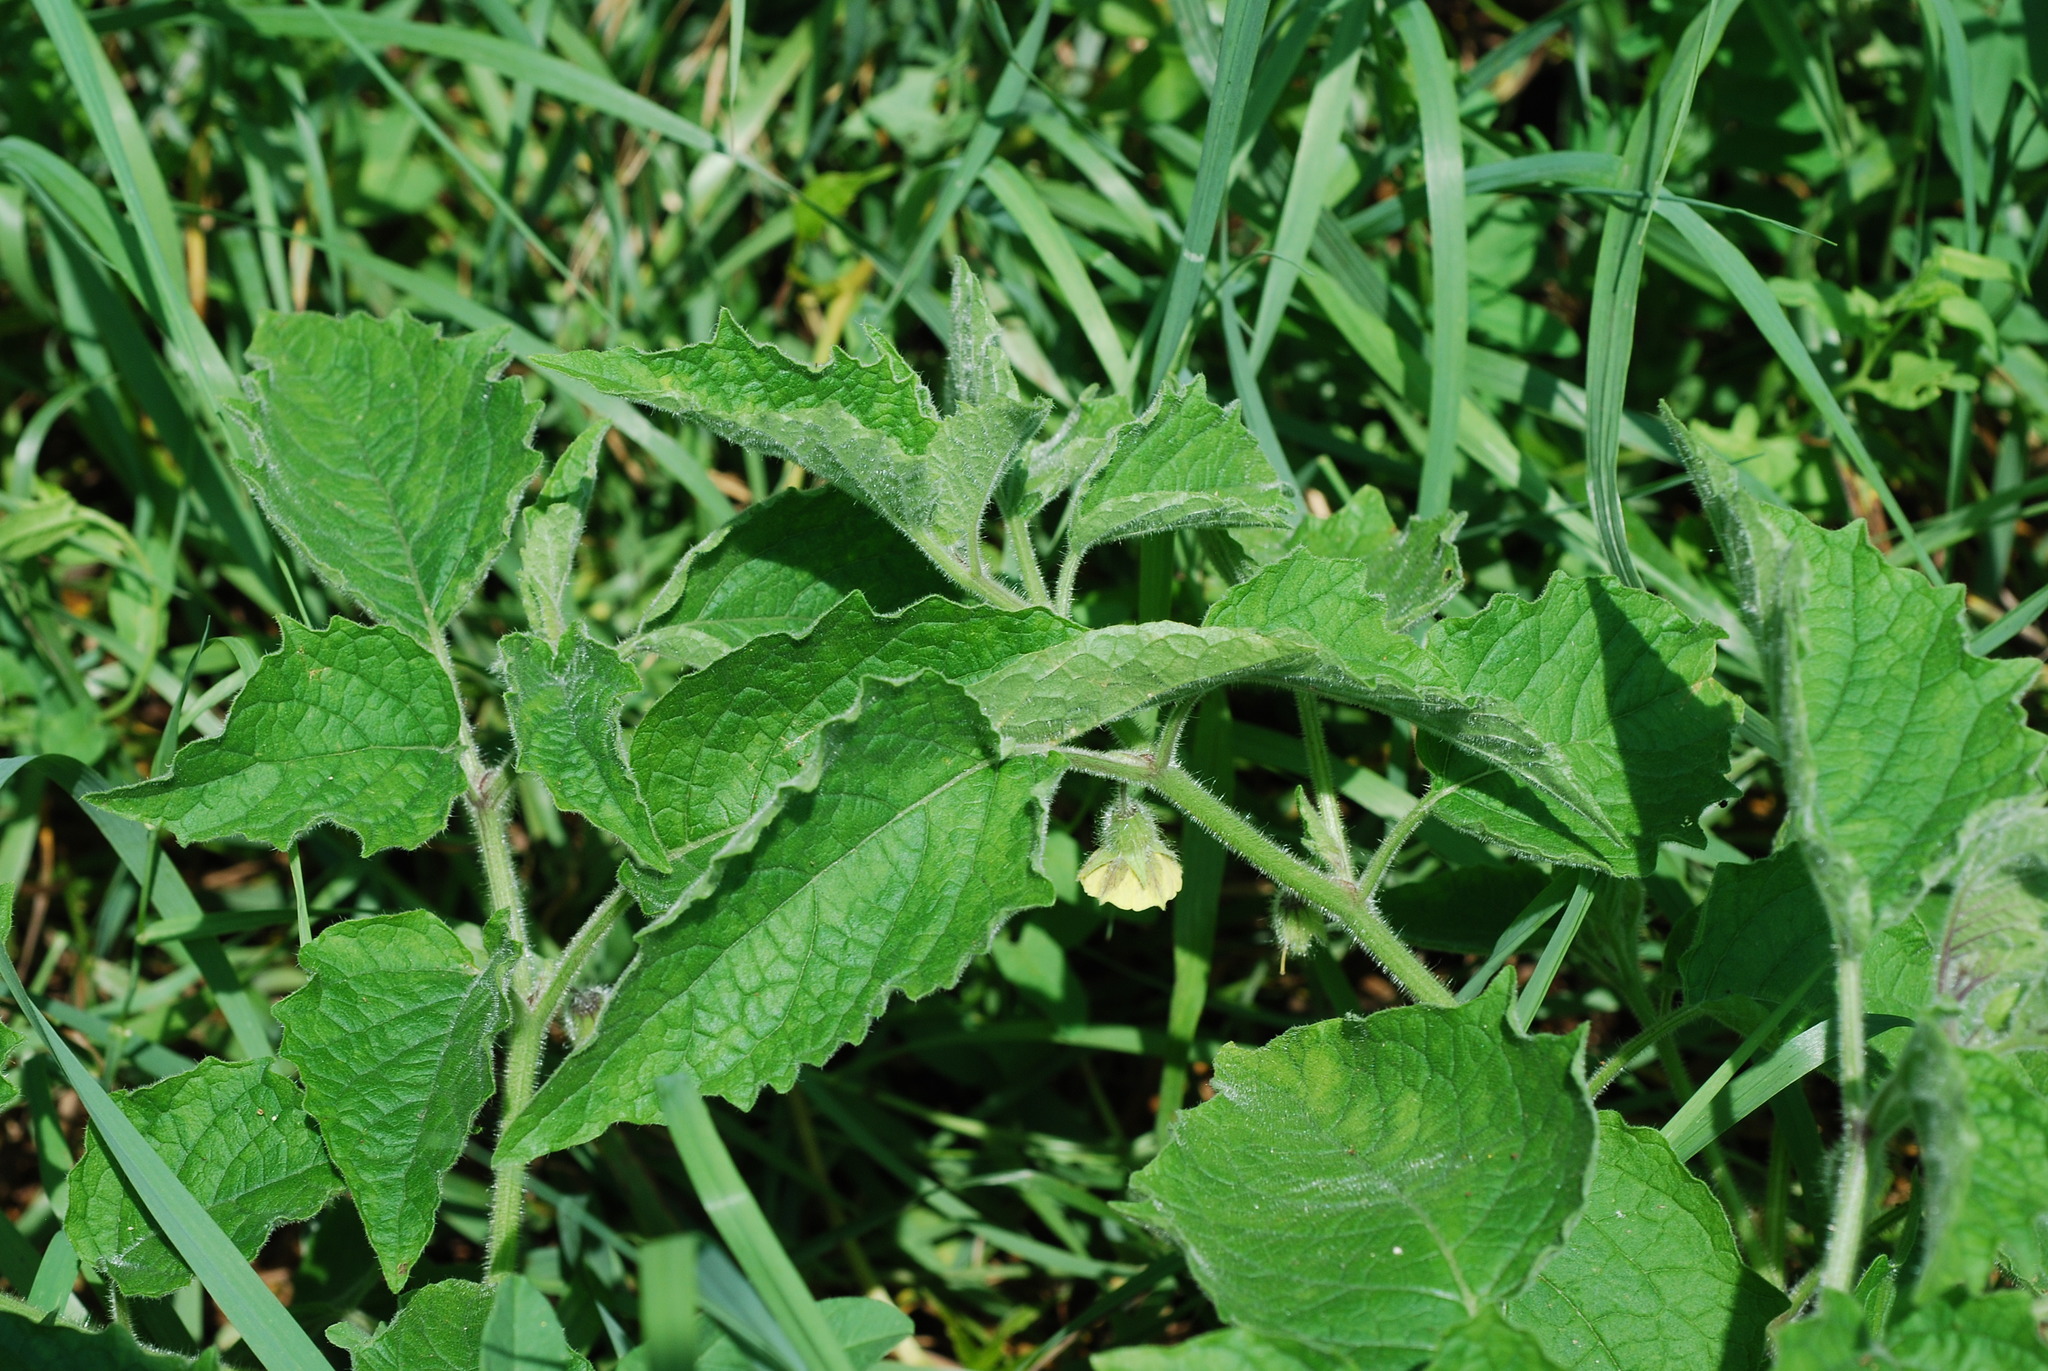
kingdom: Plantae
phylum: Tracheophyta
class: Magnoliopsida
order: Solanales
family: Solanaceae
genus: Physalis
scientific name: Physalis heterophylla
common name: Clammy ground-cherry
